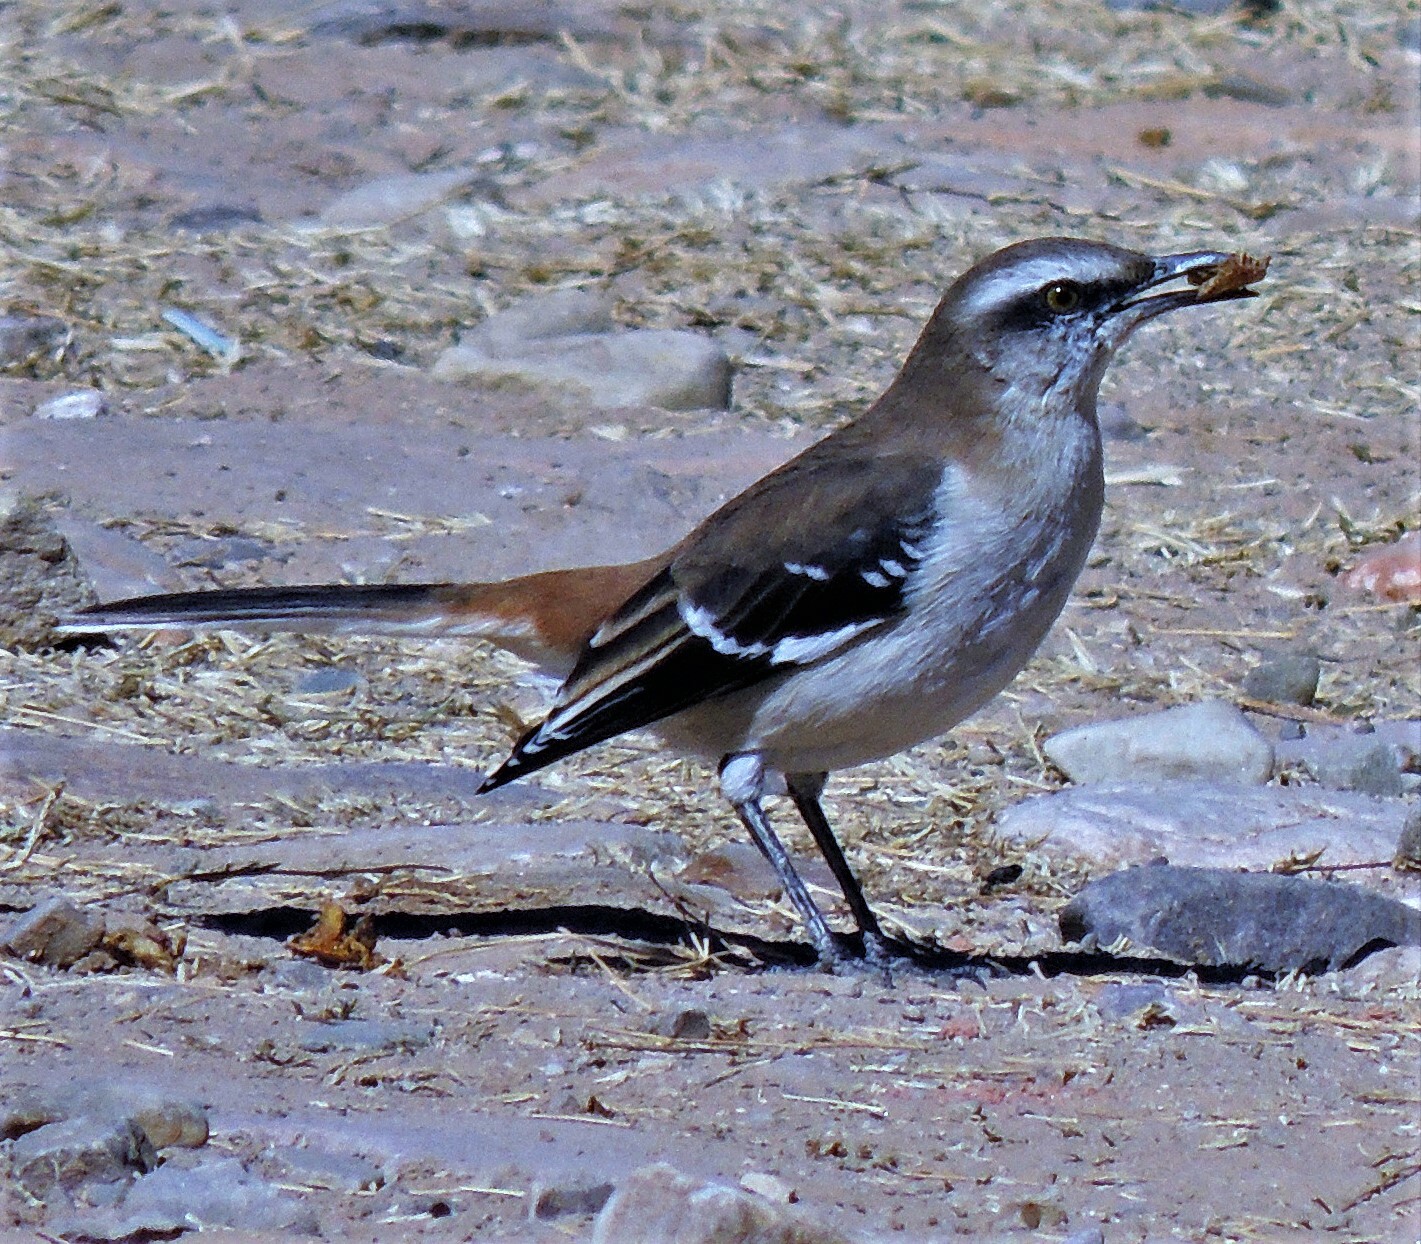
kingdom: Animalia
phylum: Chordata
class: Aves
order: Passeriformes
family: Mimidae
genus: Mimus
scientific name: Mimus dorsalis
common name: Brown-backed mockingbird
